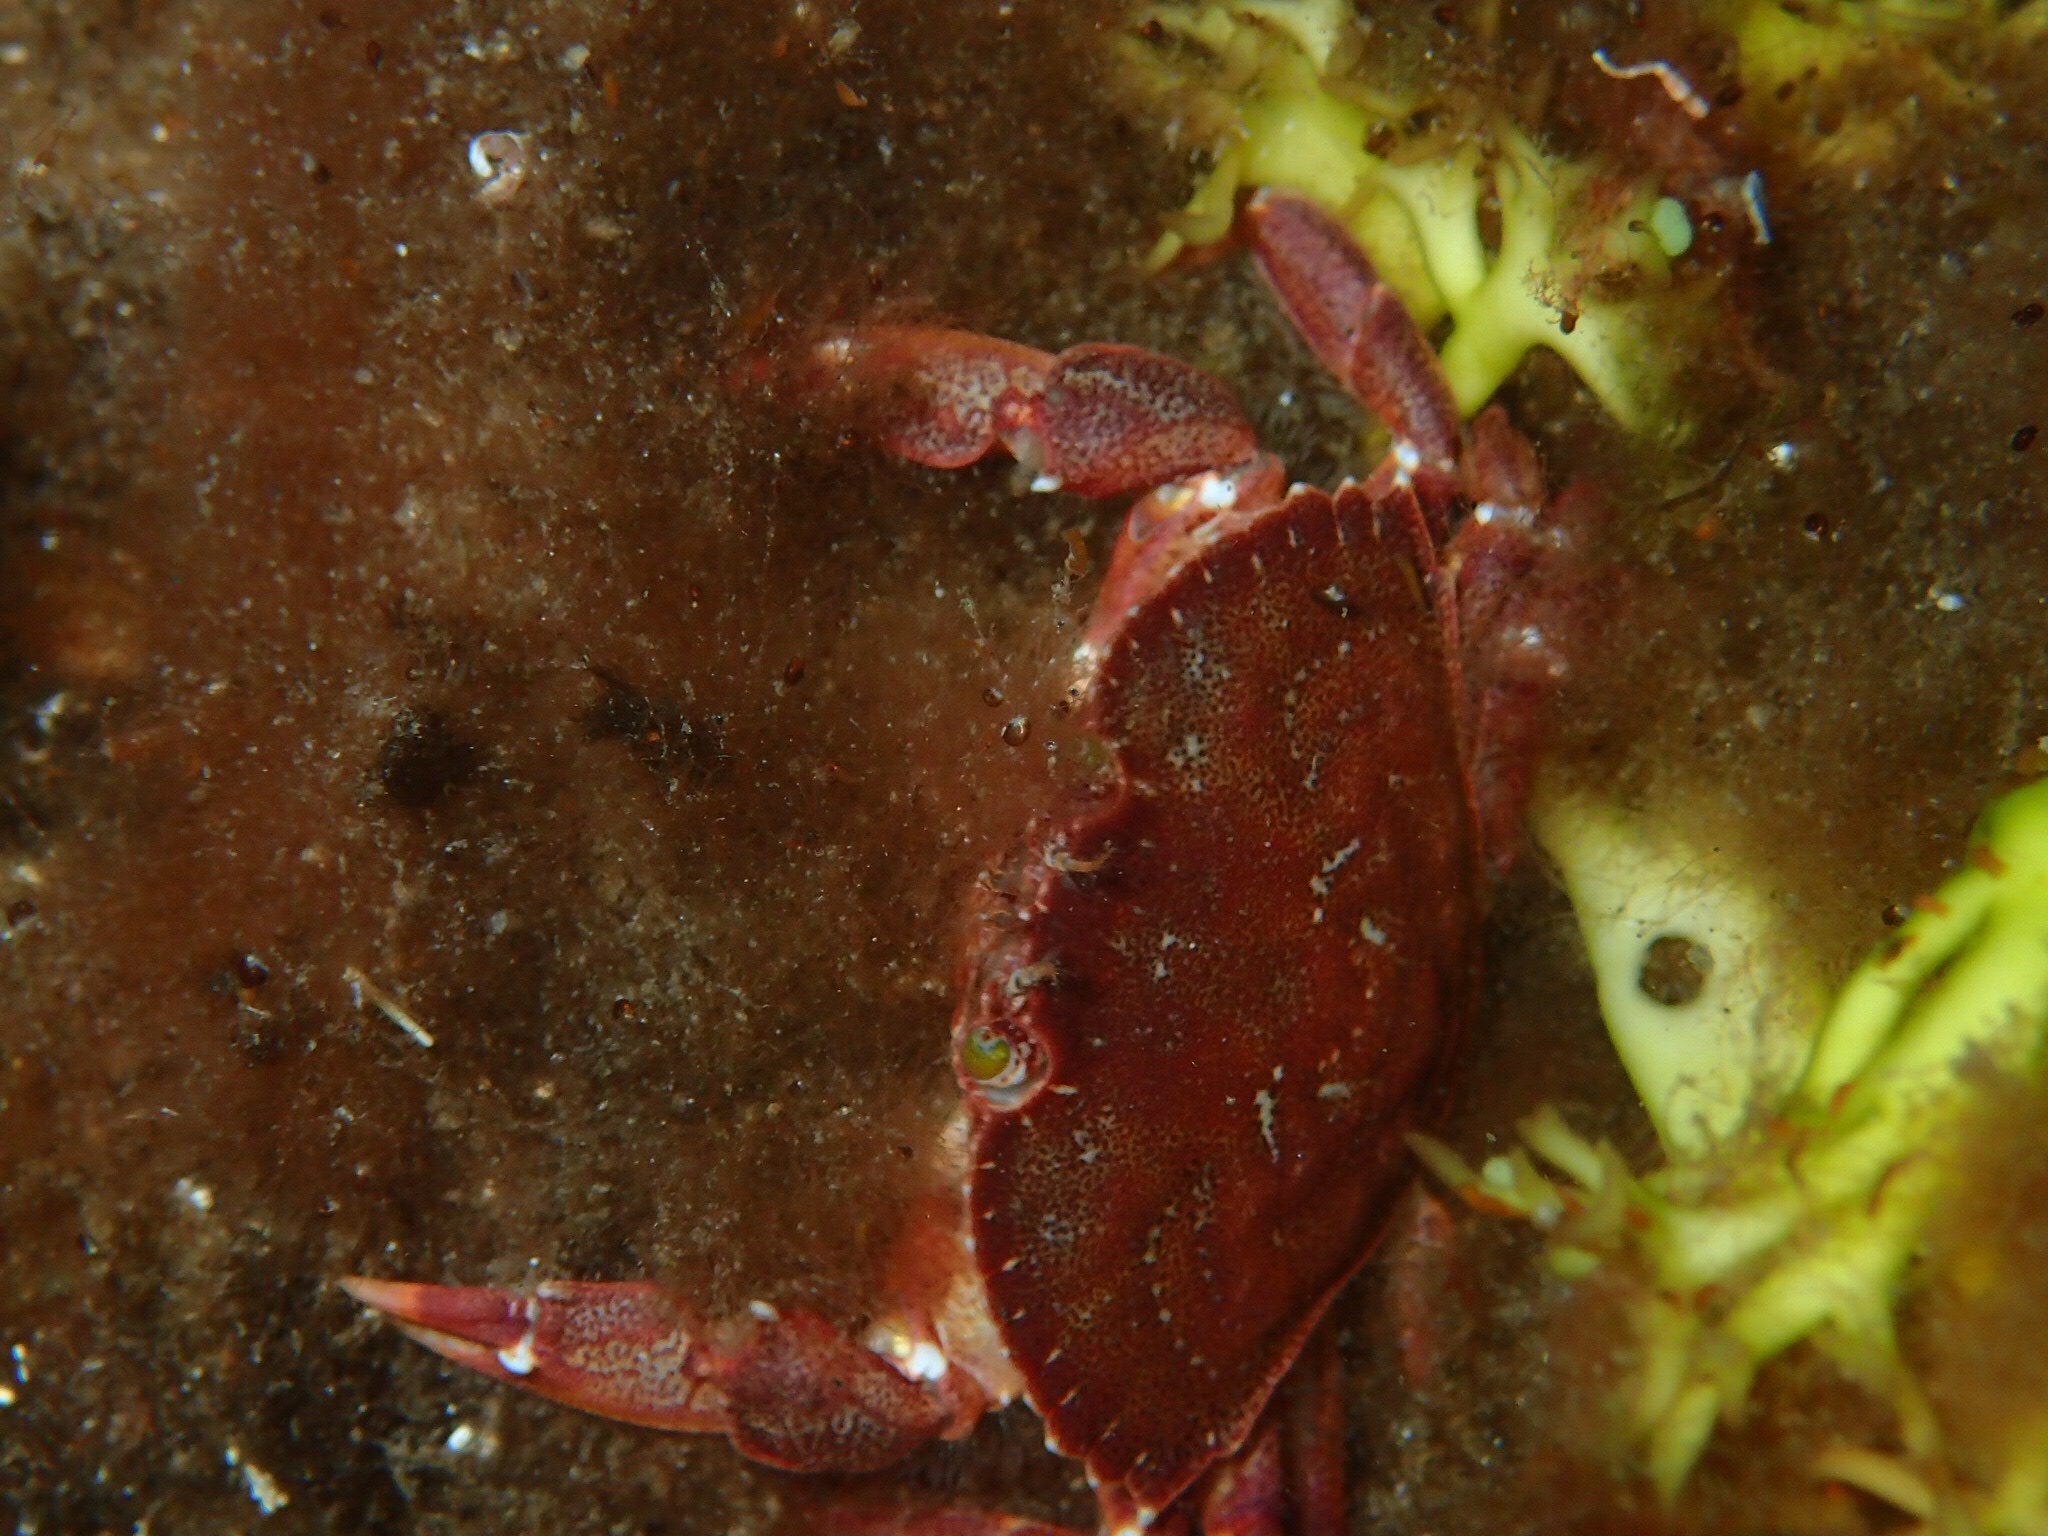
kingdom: Animalia
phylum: Arthropoda
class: Malacostraca
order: Decapoda
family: Cancridae
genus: Cancer
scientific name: Cancer irroratus
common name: Atlantic rock crab
